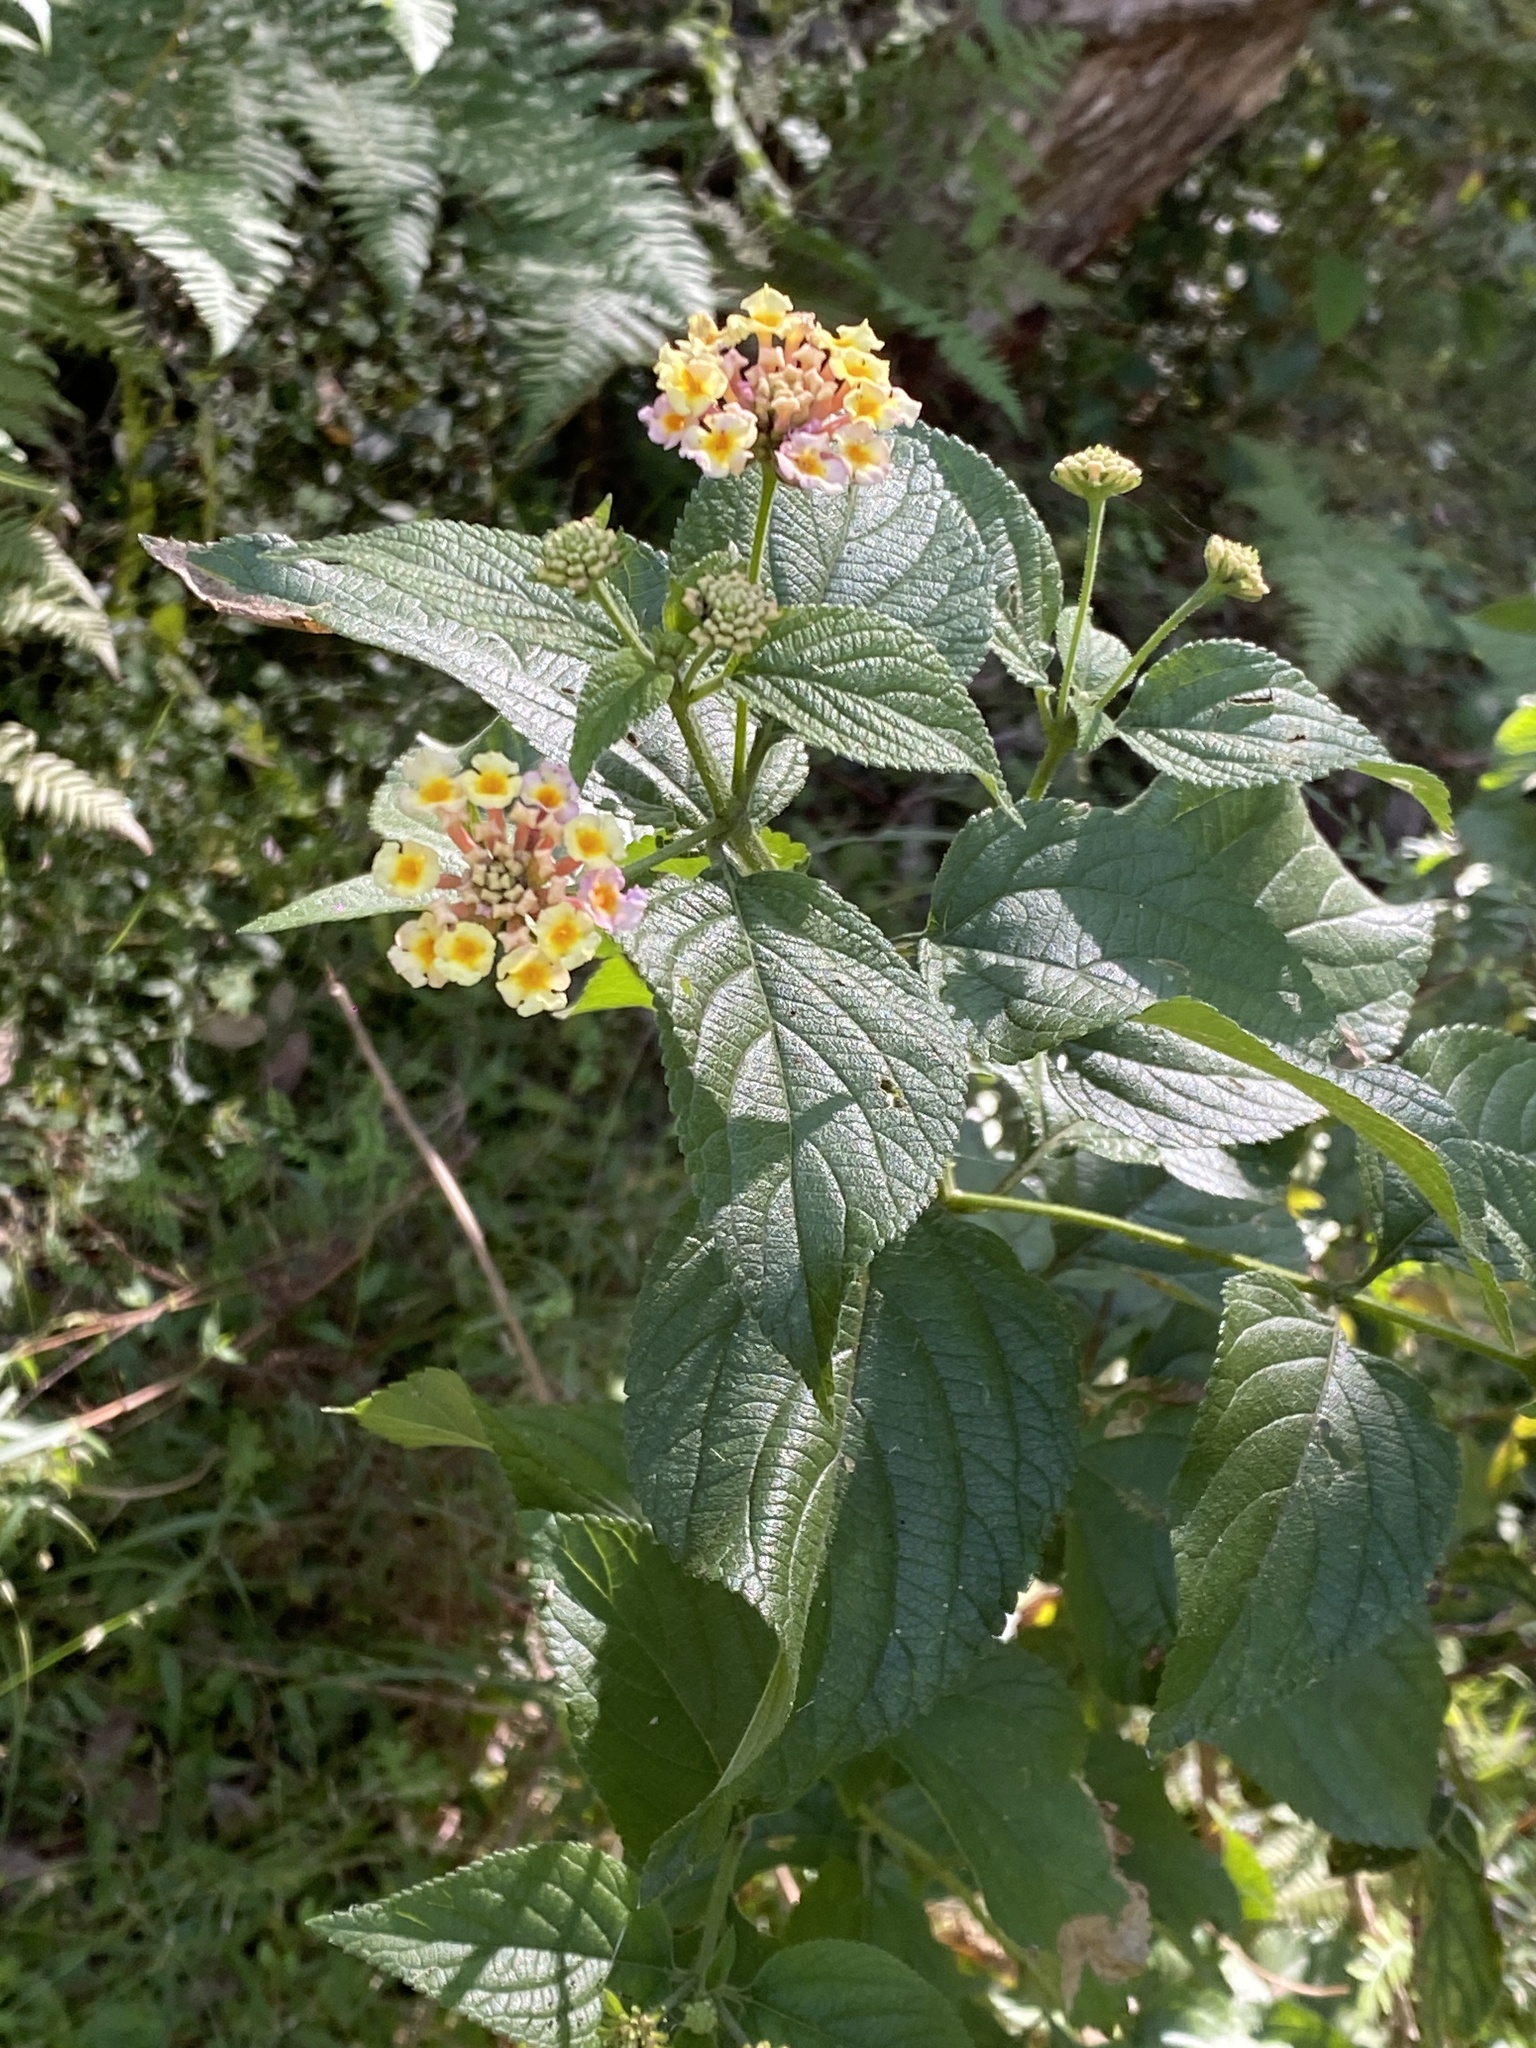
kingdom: Plantae
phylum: Tracheophyta
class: Magnoliopsida
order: Lamiales
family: Verbenaceae
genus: Lantana
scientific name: Lantana camara
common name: Lantana
